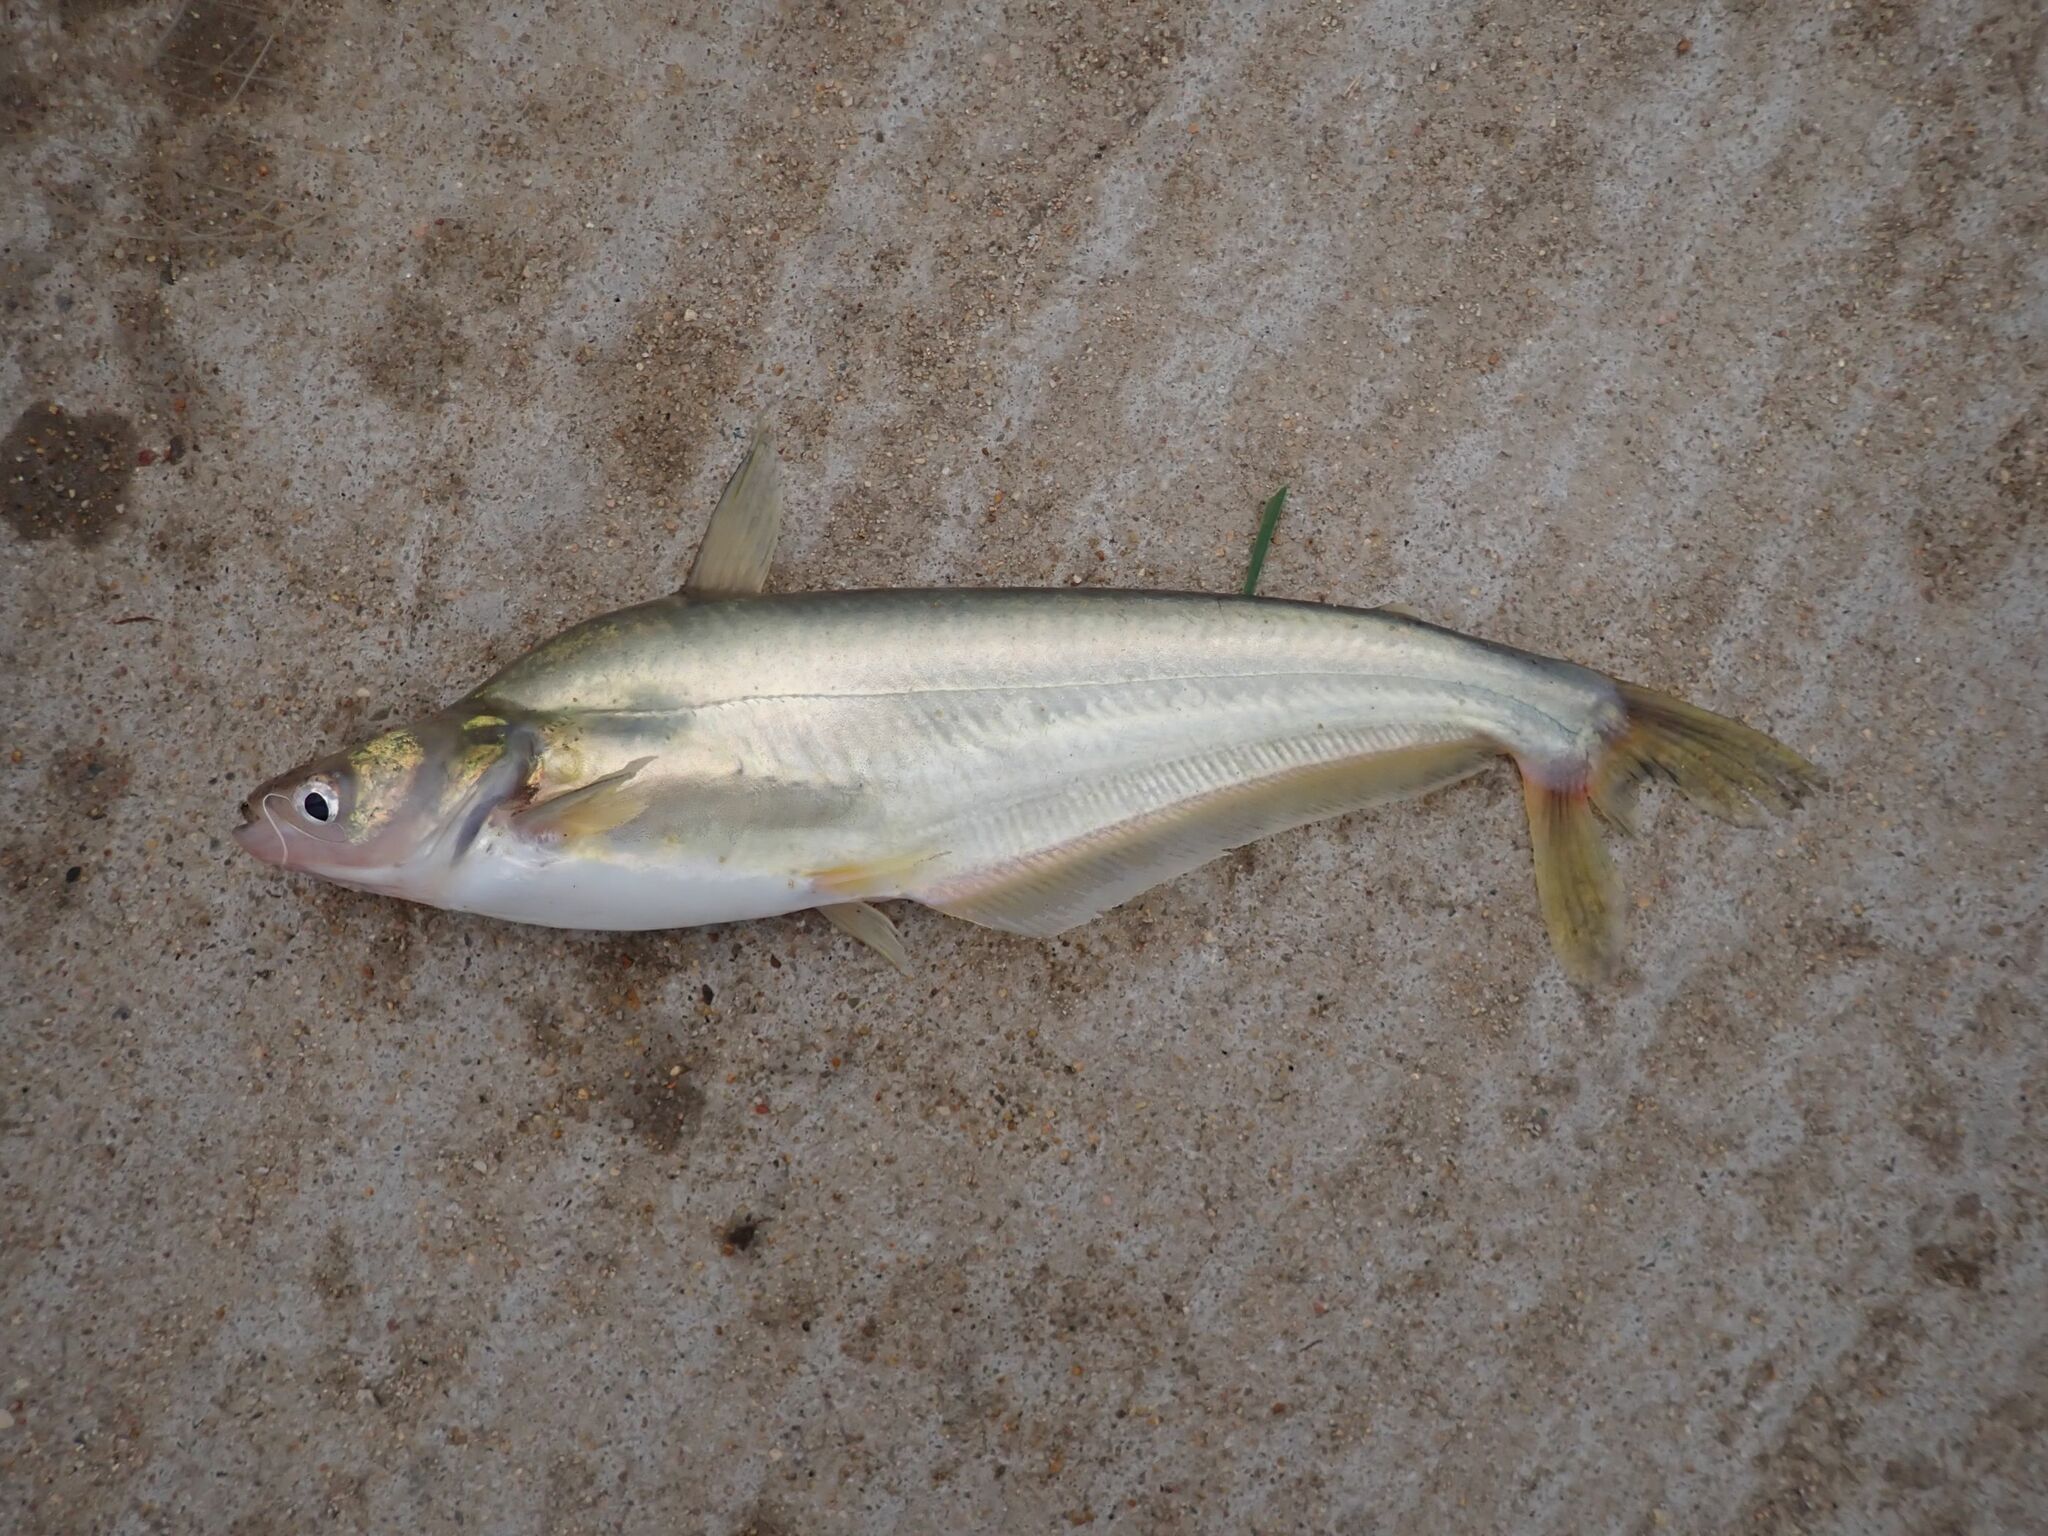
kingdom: Animalia
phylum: Chordata
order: Siluriformes
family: Schilbeidae
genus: Schilbe
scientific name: Schilbe intermedius
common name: Silver catfish
